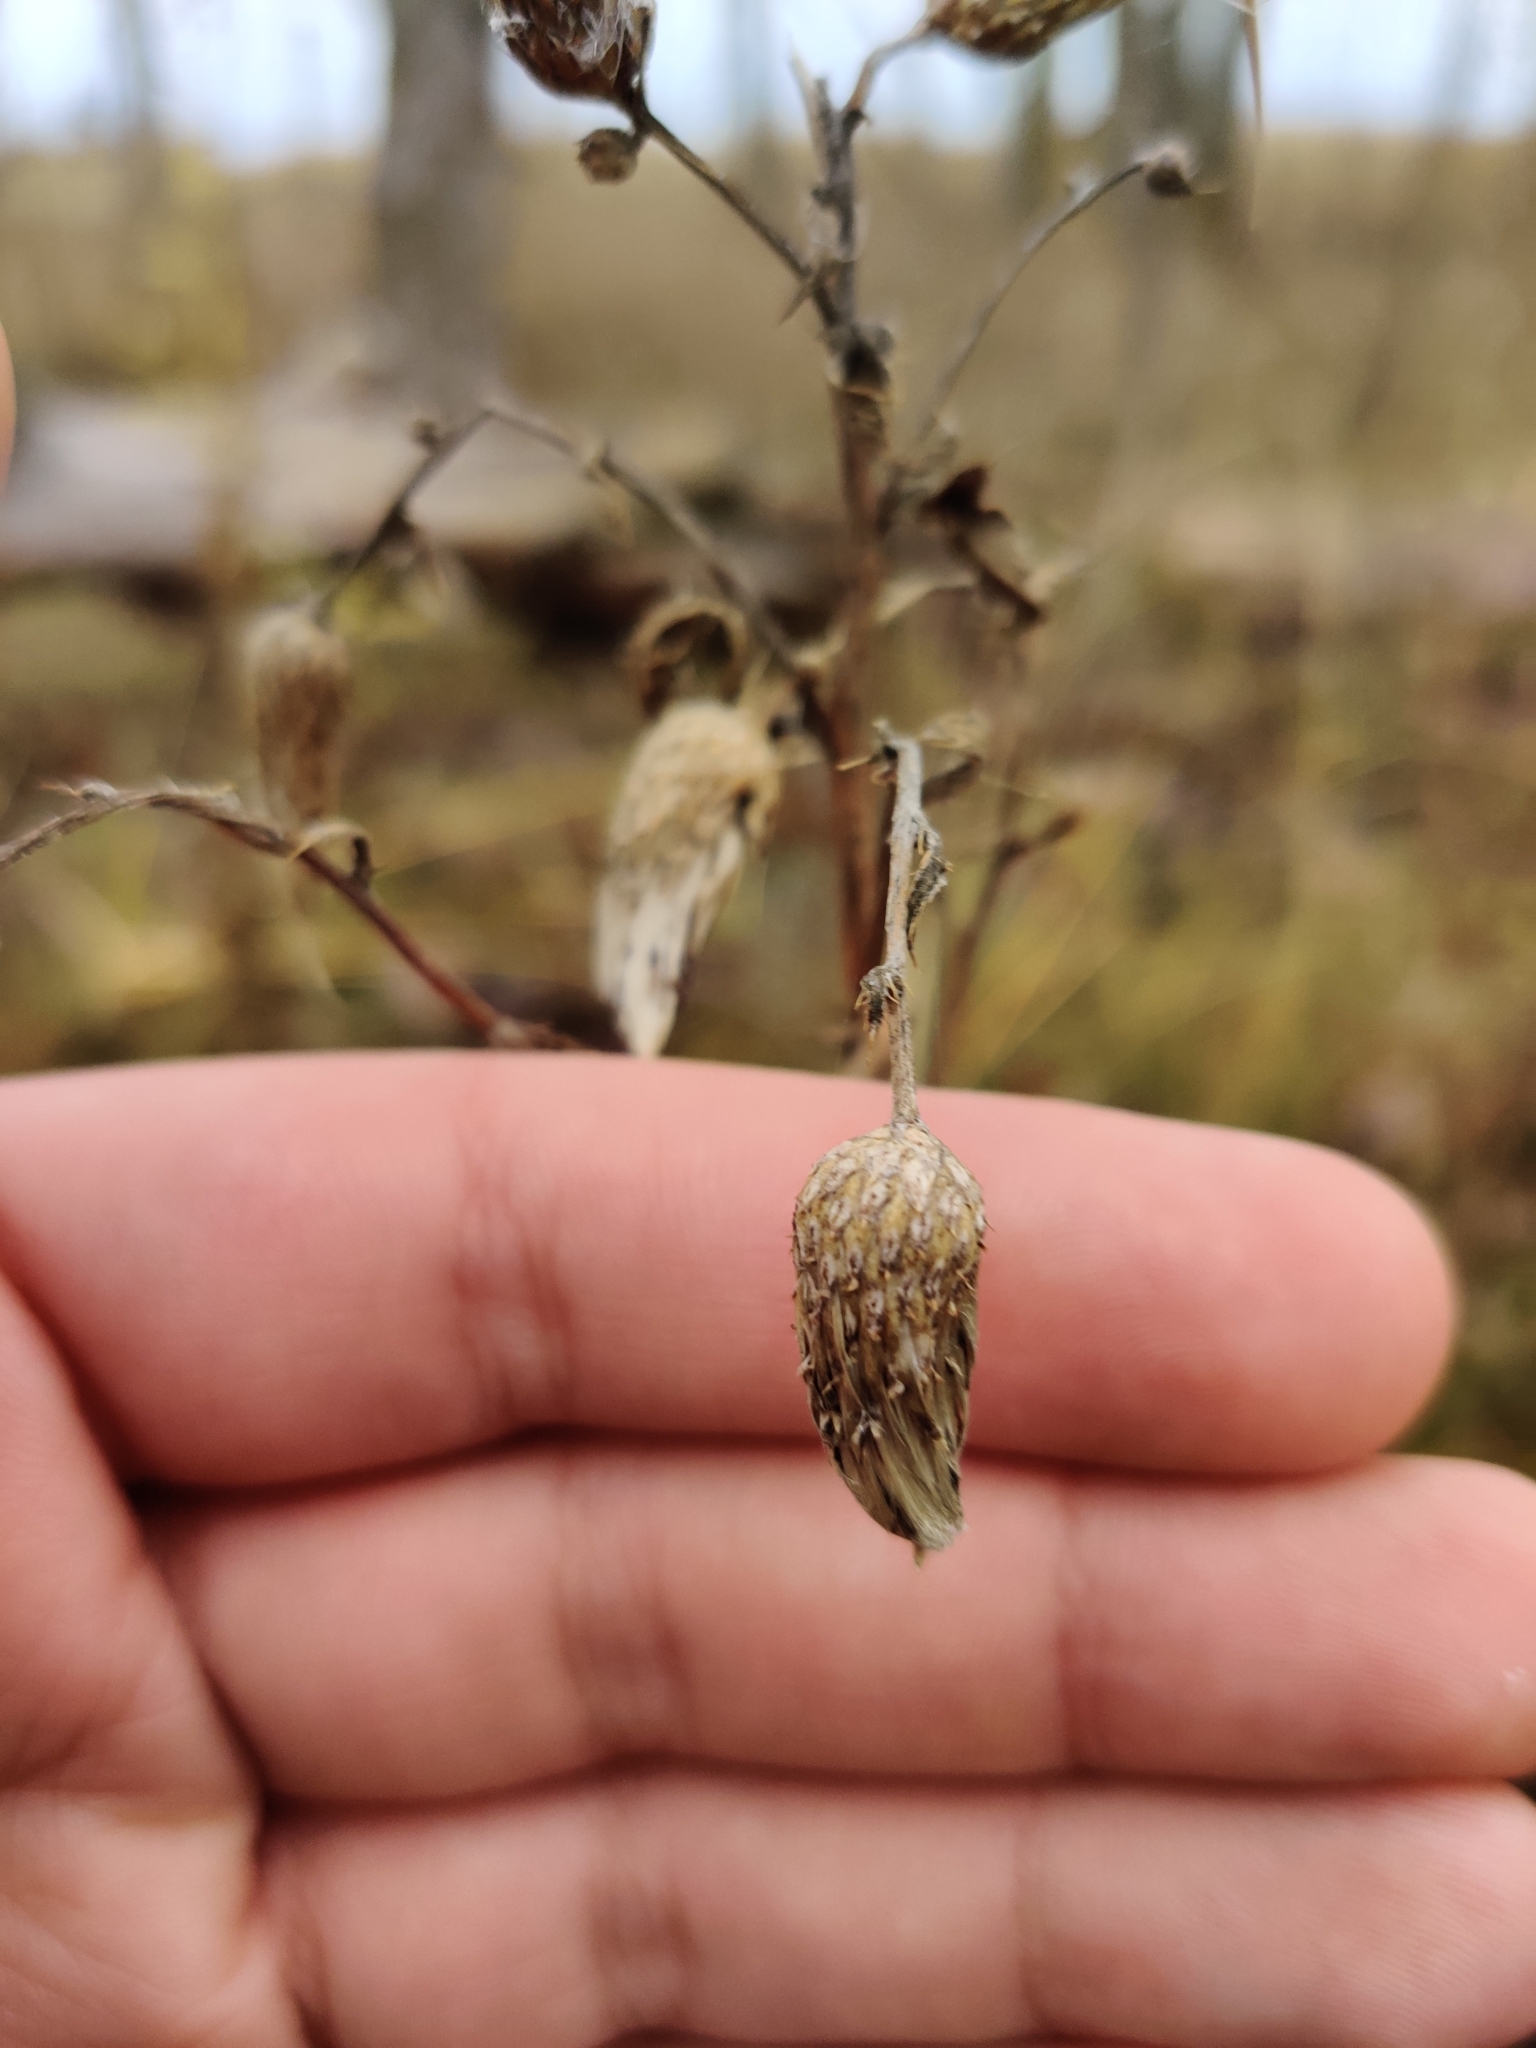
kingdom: Plantae
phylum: Tracheophyta
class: Magnoliopsida
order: Asterales
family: Asteraceae
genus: Cirsium
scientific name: Cirsium arvense
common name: Creeping thistle
